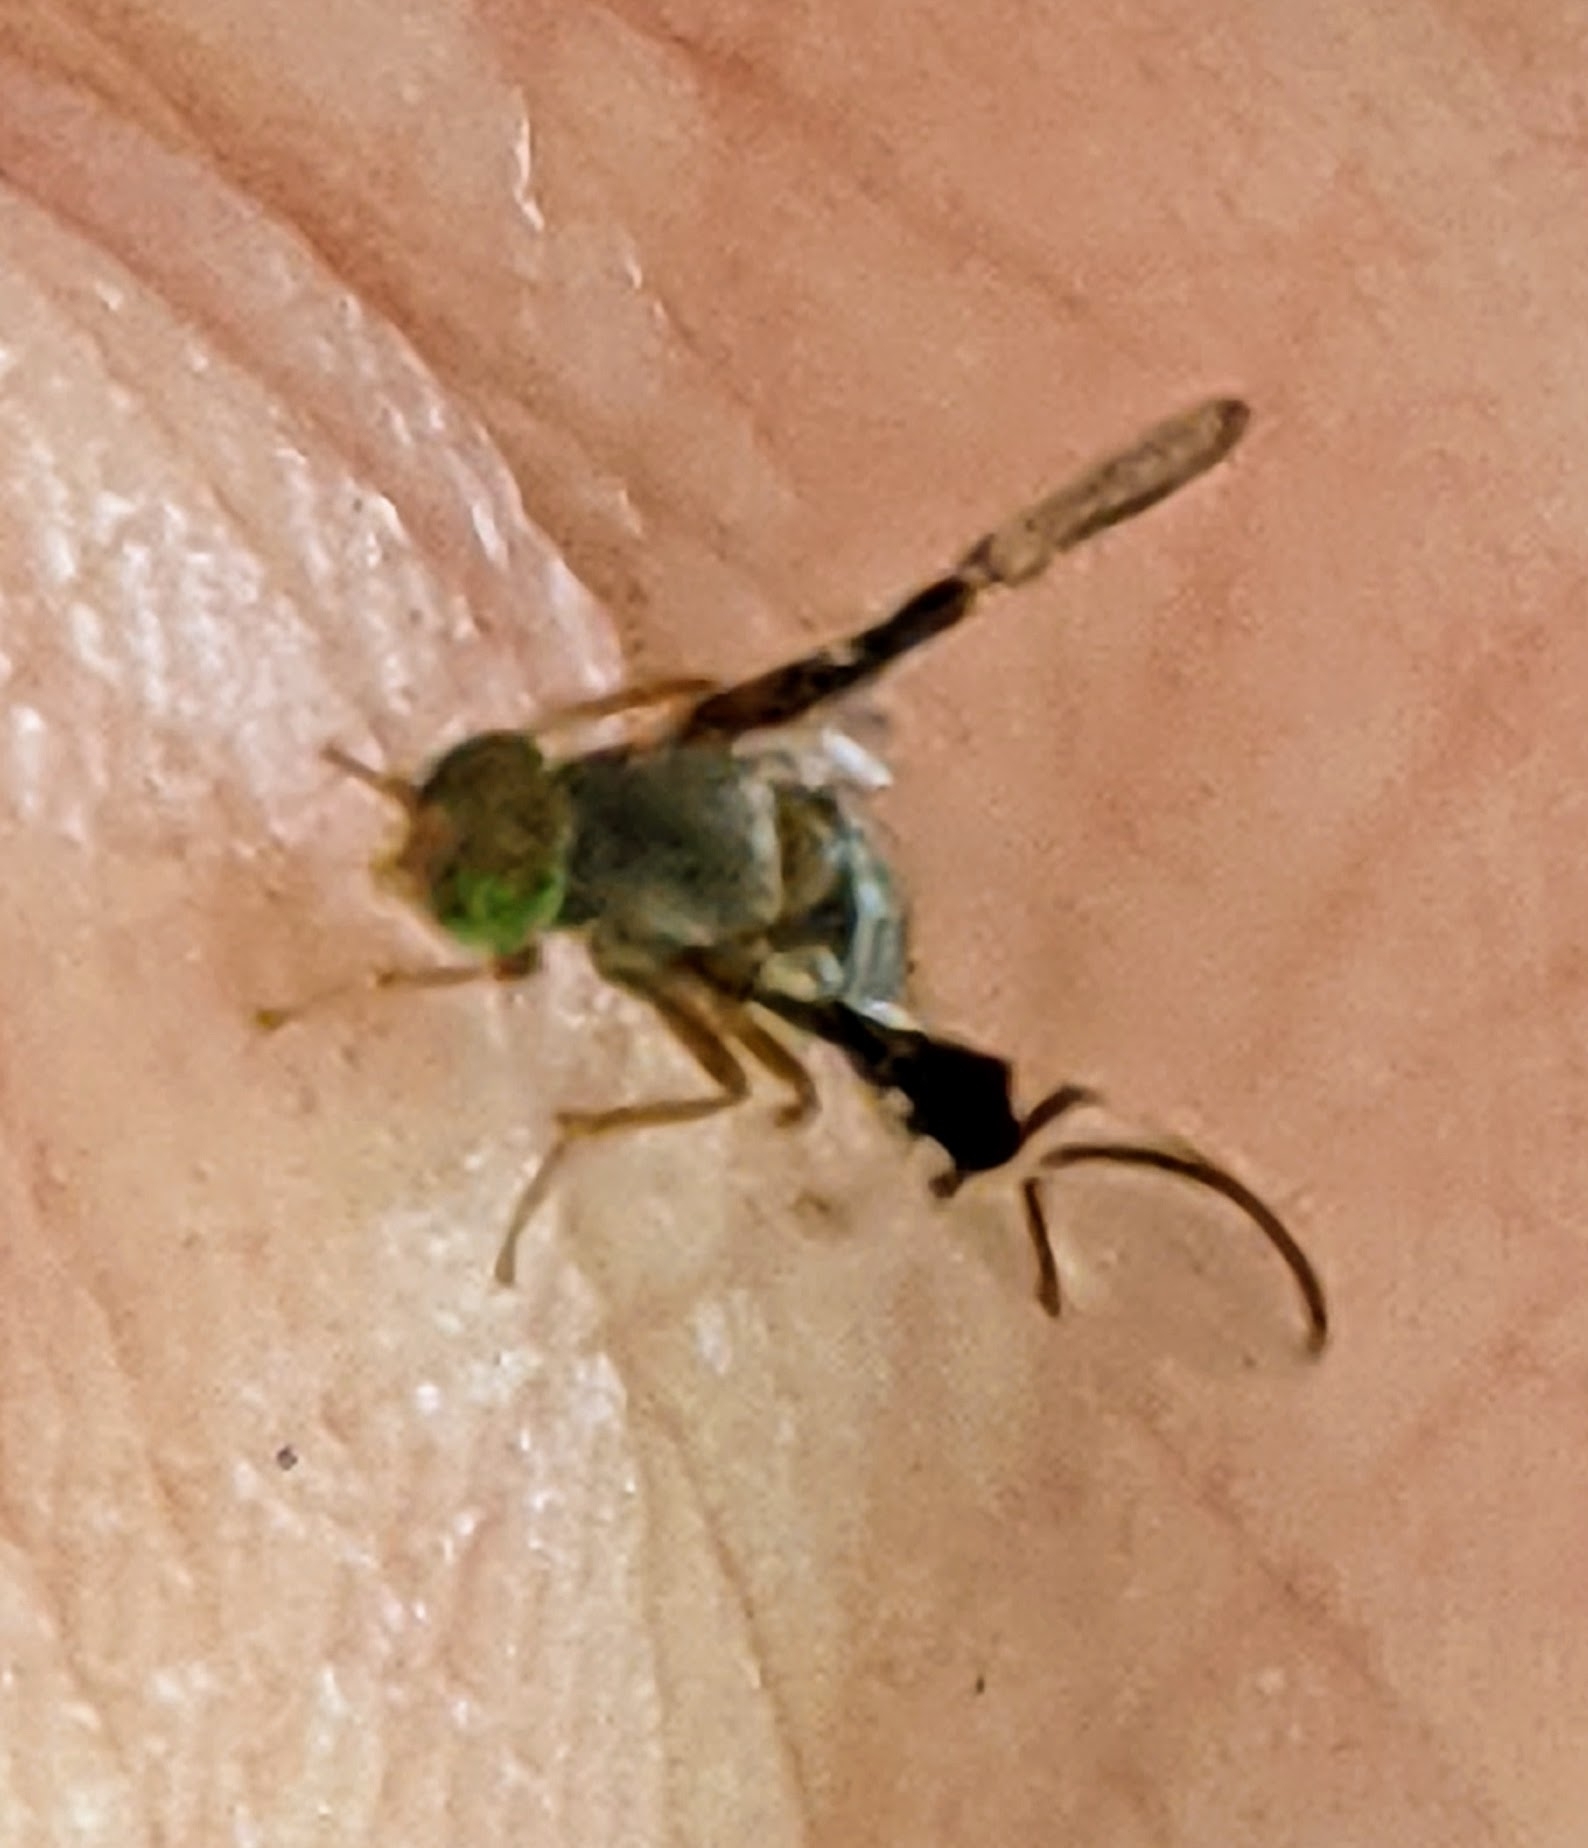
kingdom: Animalia
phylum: Arthropoda
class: Insecta
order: Diptera
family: Tephritidae
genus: Anomoia
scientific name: Anomoia purmunda
